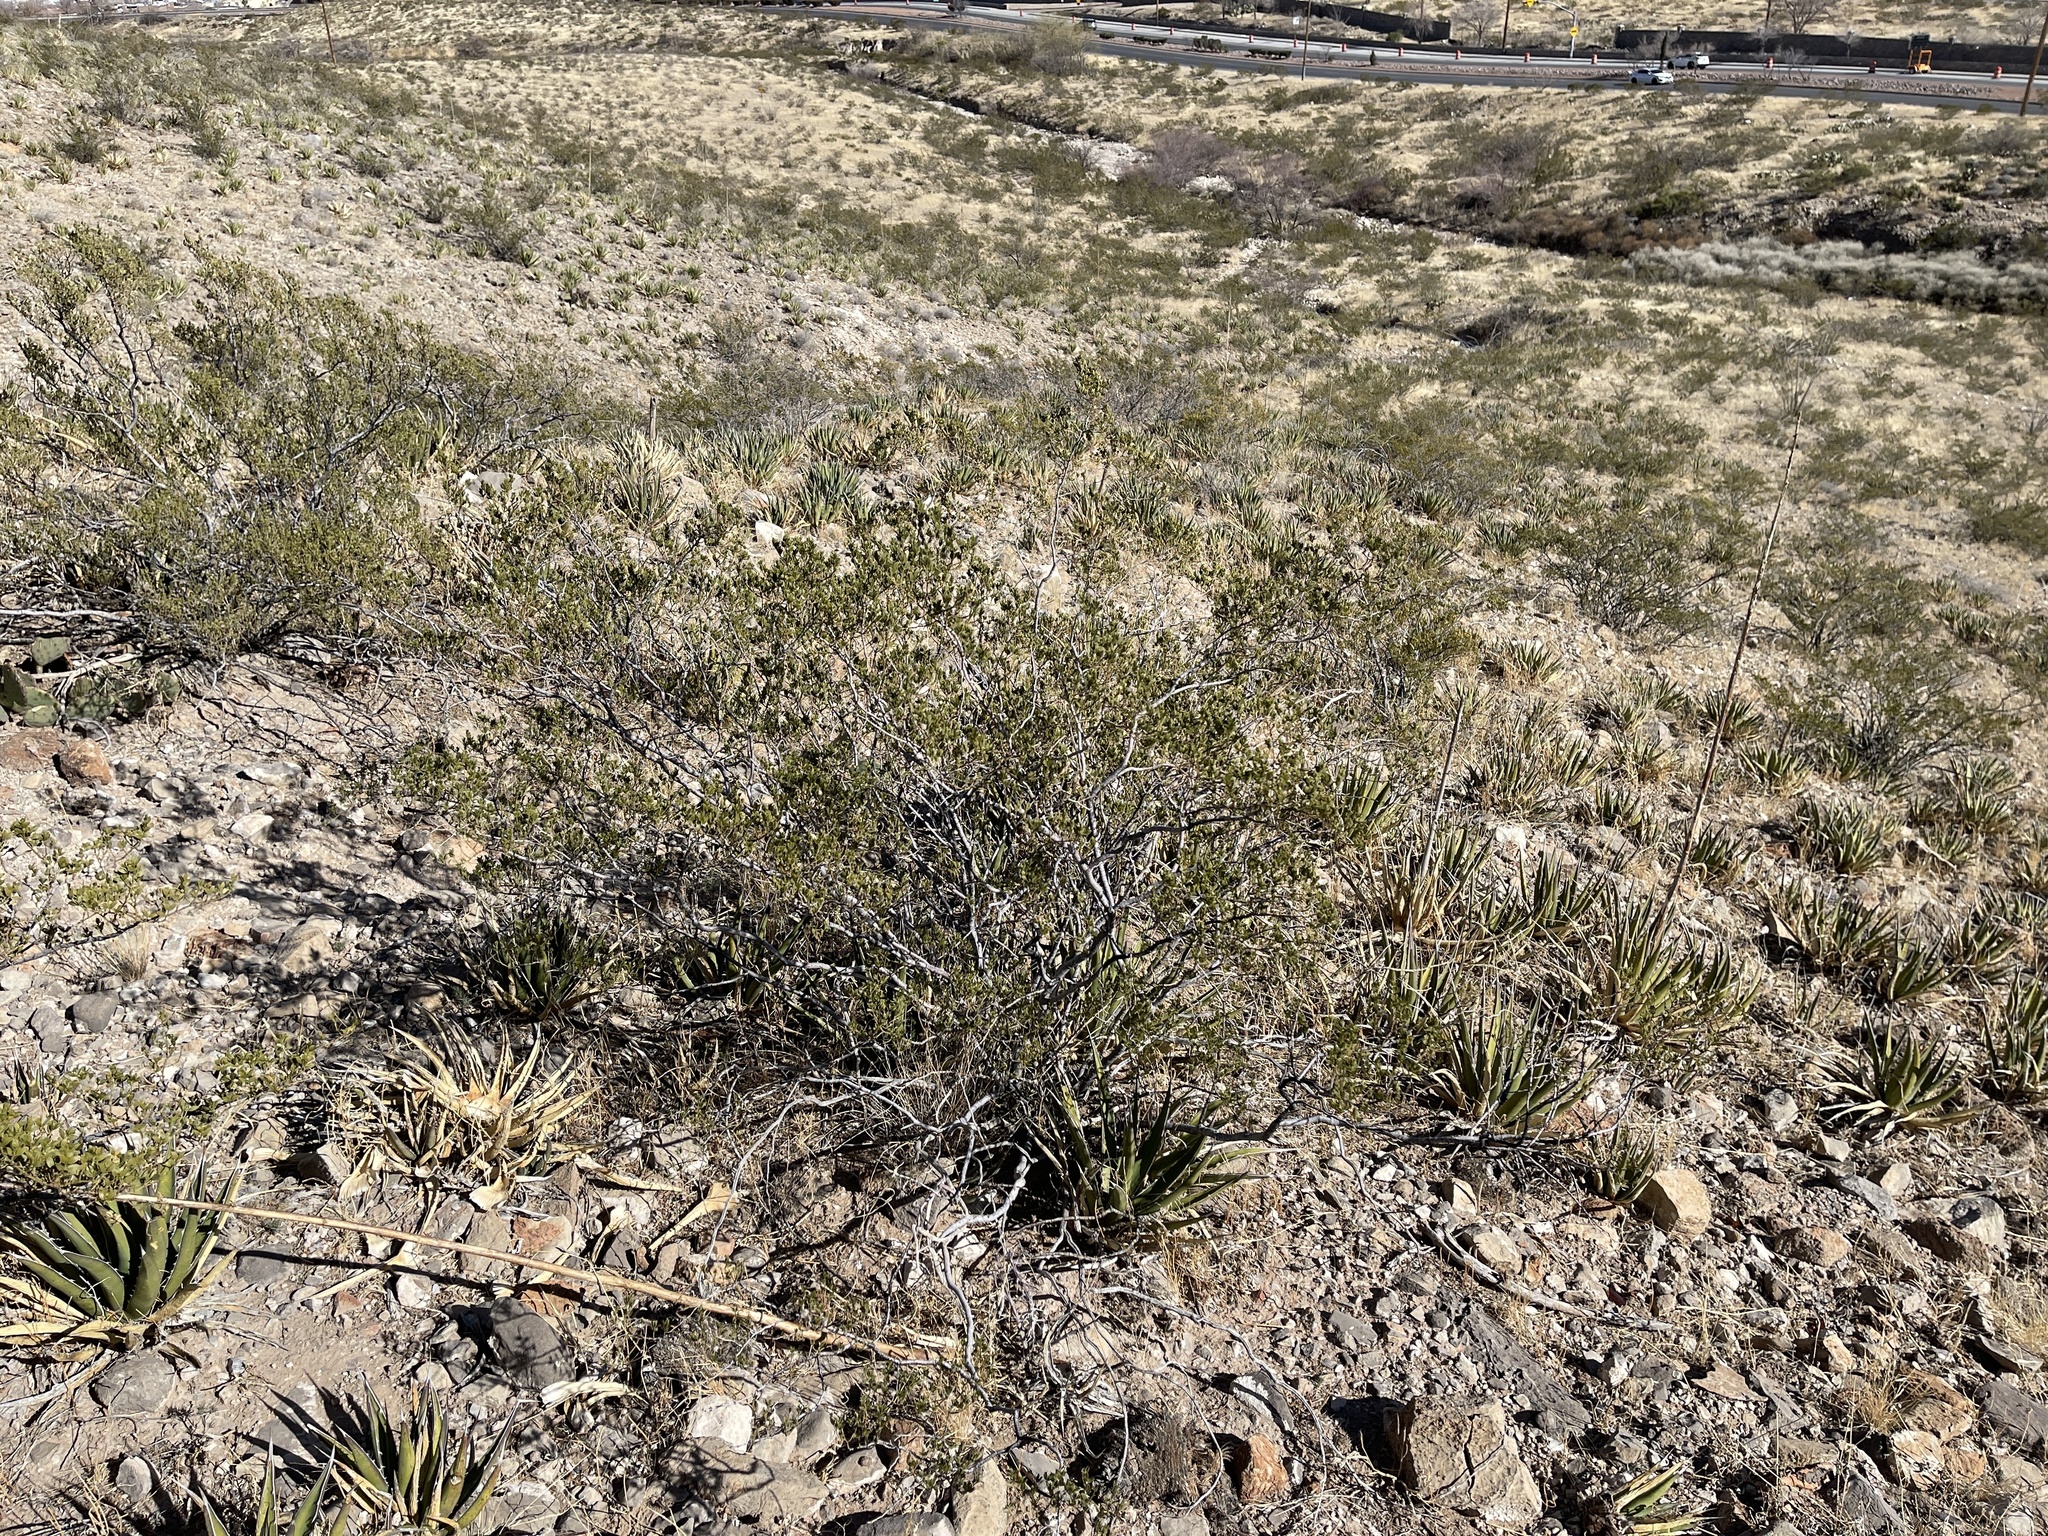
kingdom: Plantae
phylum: Tracheophyta
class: Magnoliopsida
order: Zygophyllales
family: Zygophyllaceae
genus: Larrea
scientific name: Larrea tridentata
